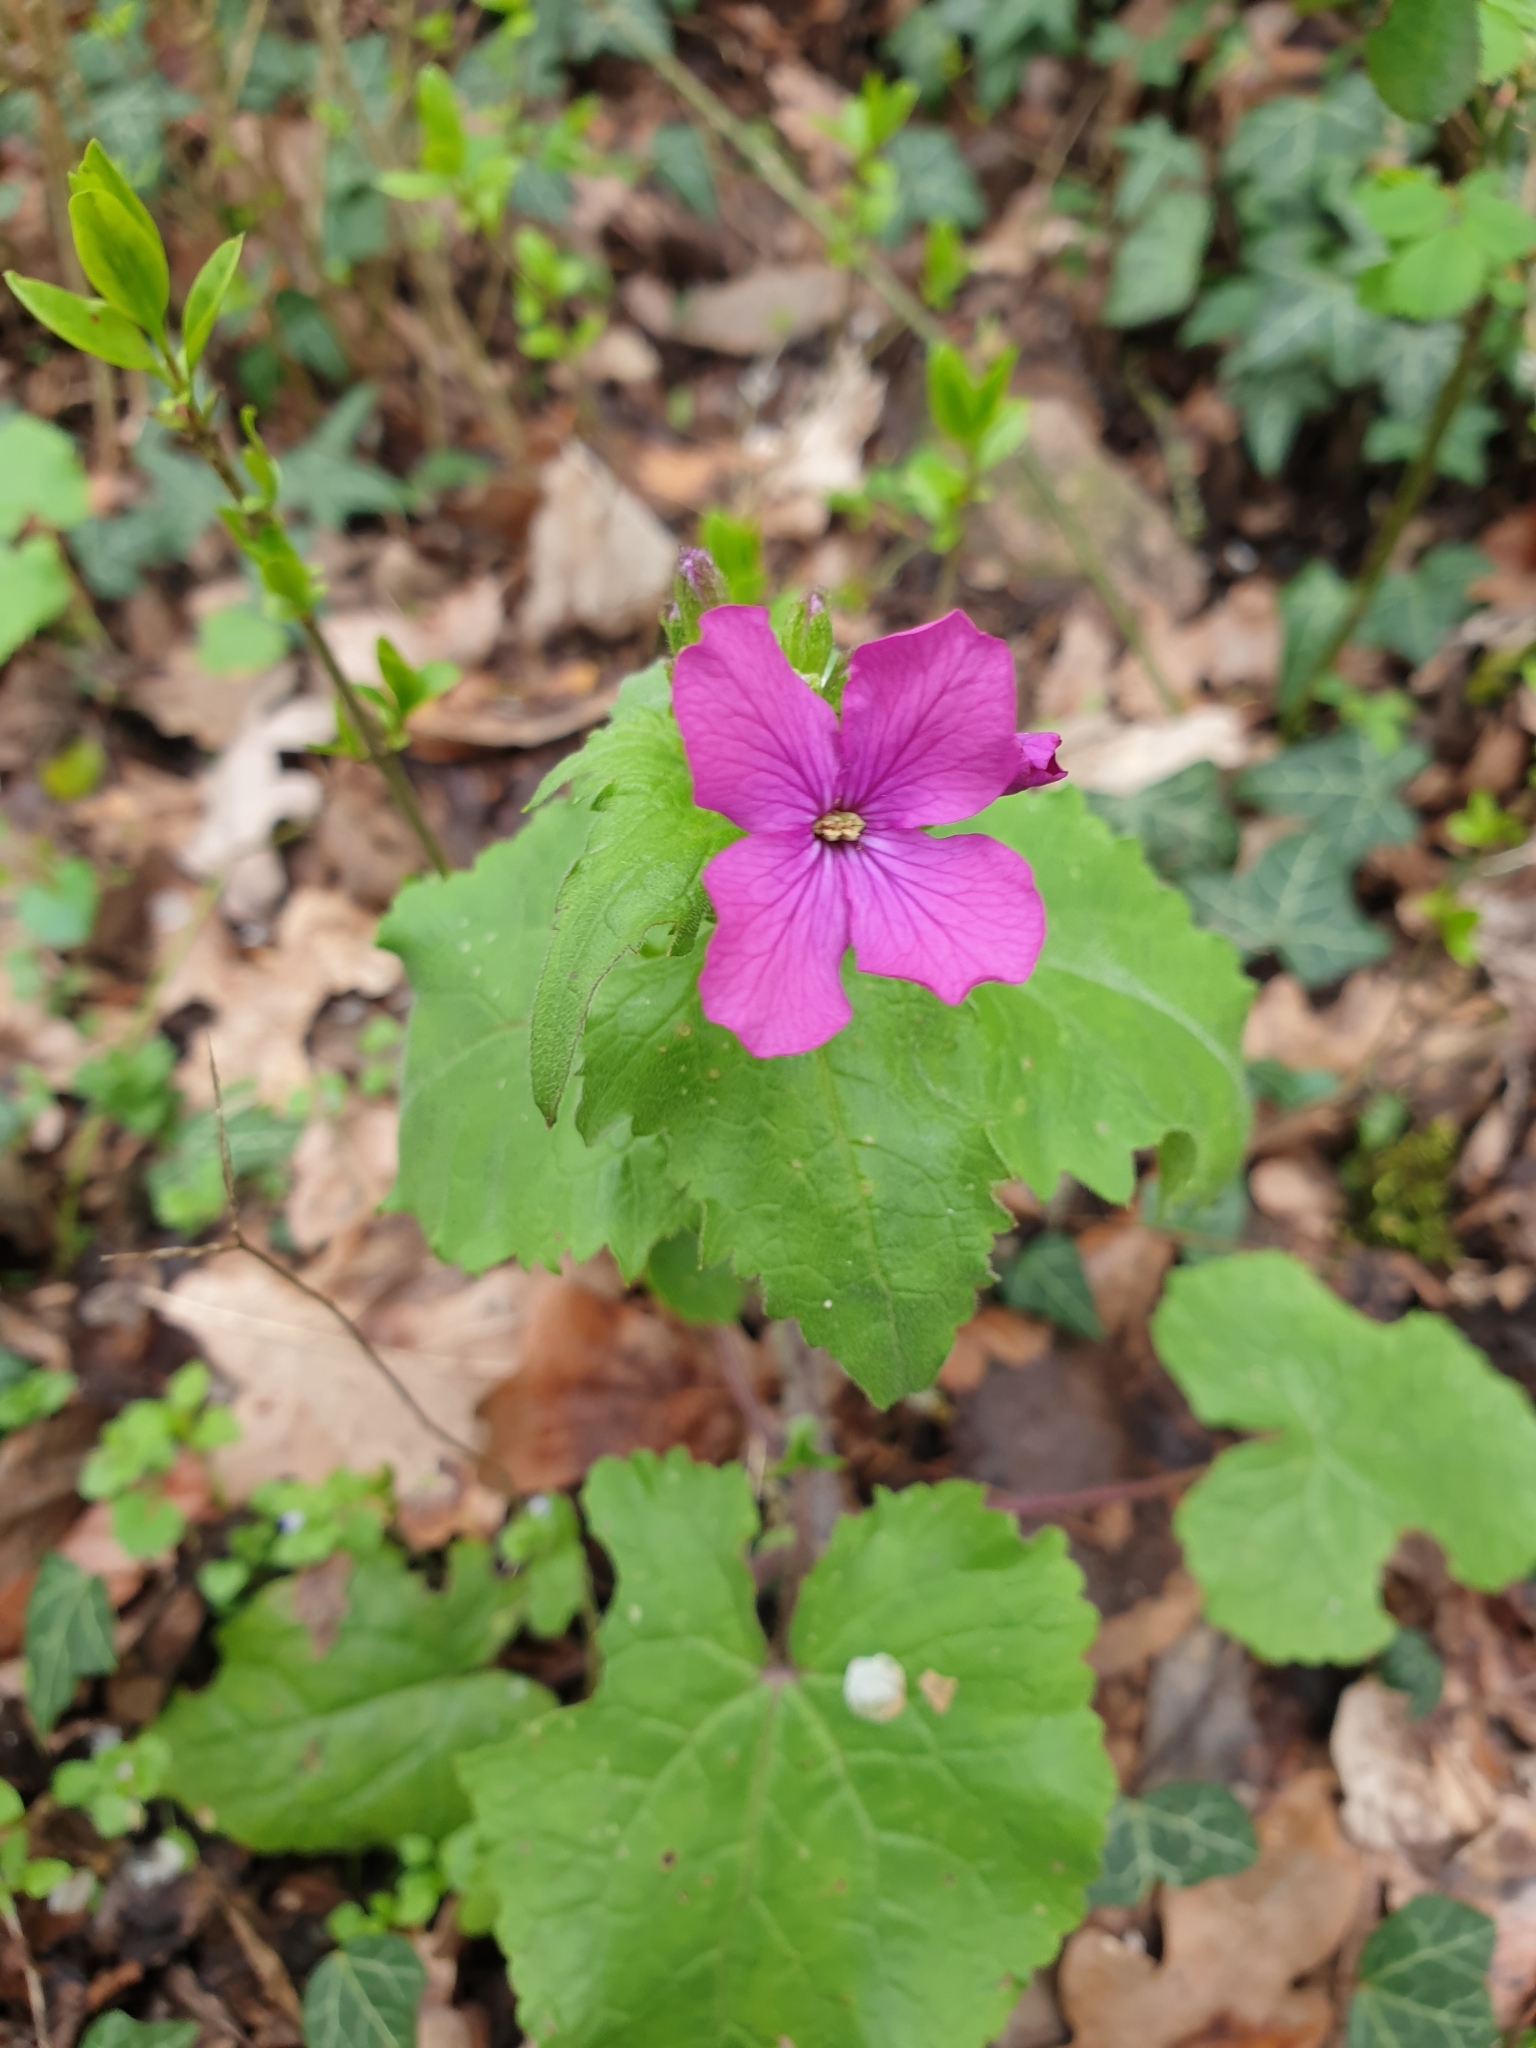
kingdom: Plantae
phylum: Tracheophyta
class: Magnoliopsida
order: Brassicales
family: Brassicaceae
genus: Lunaria
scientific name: Lunaria annua
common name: Honesty
